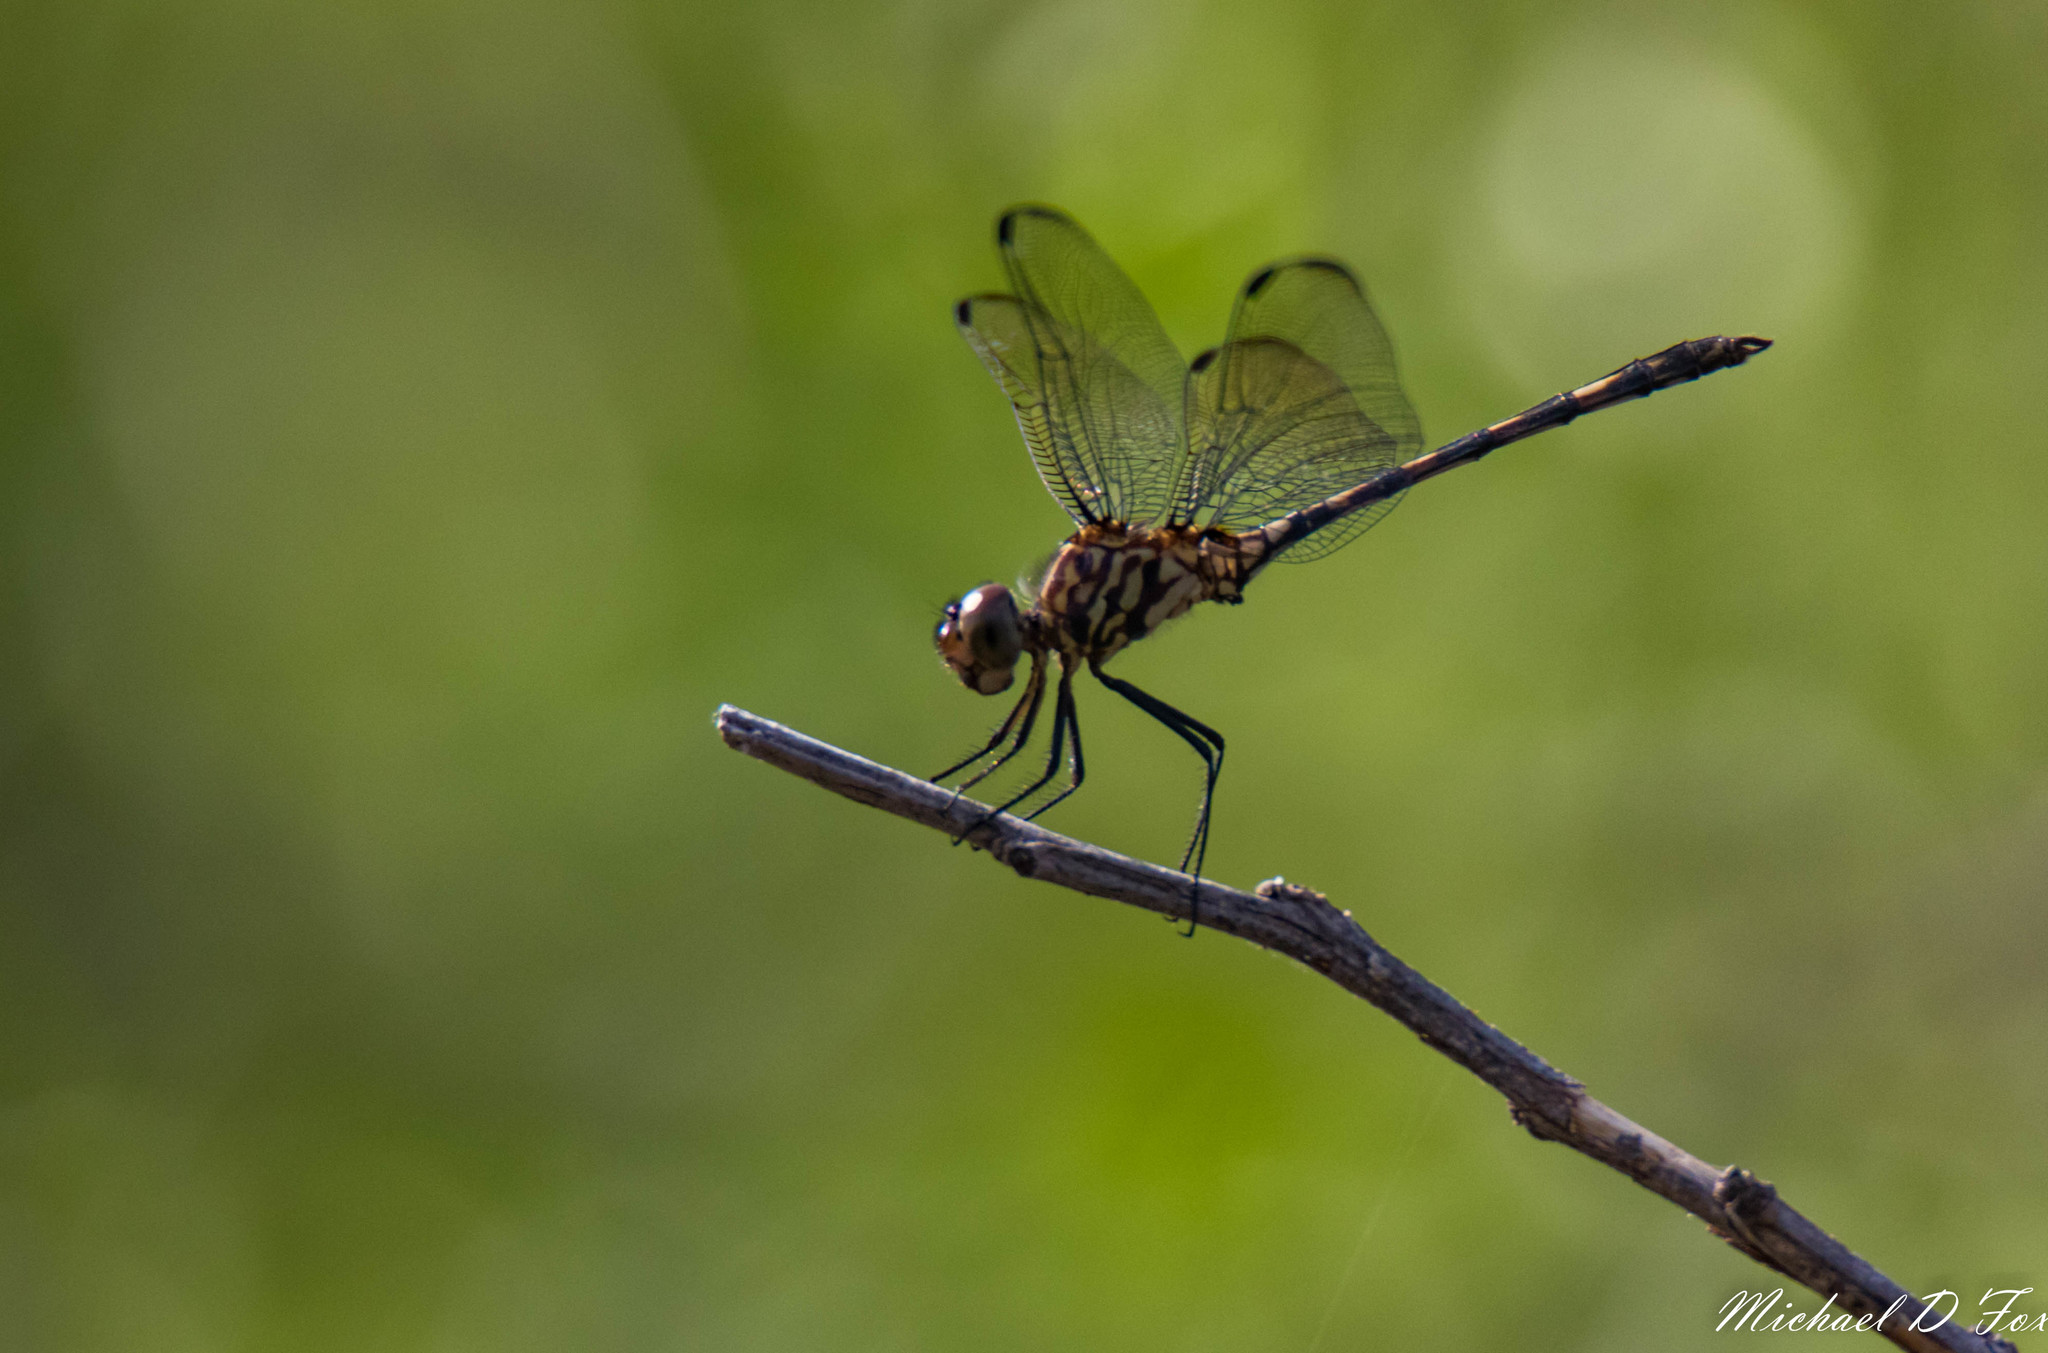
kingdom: Animalia
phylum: Arthropoda
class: Insecta
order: Odonata
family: Libellulidae
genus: Dythemis
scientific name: Dythemis velox
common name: Swift setwing
